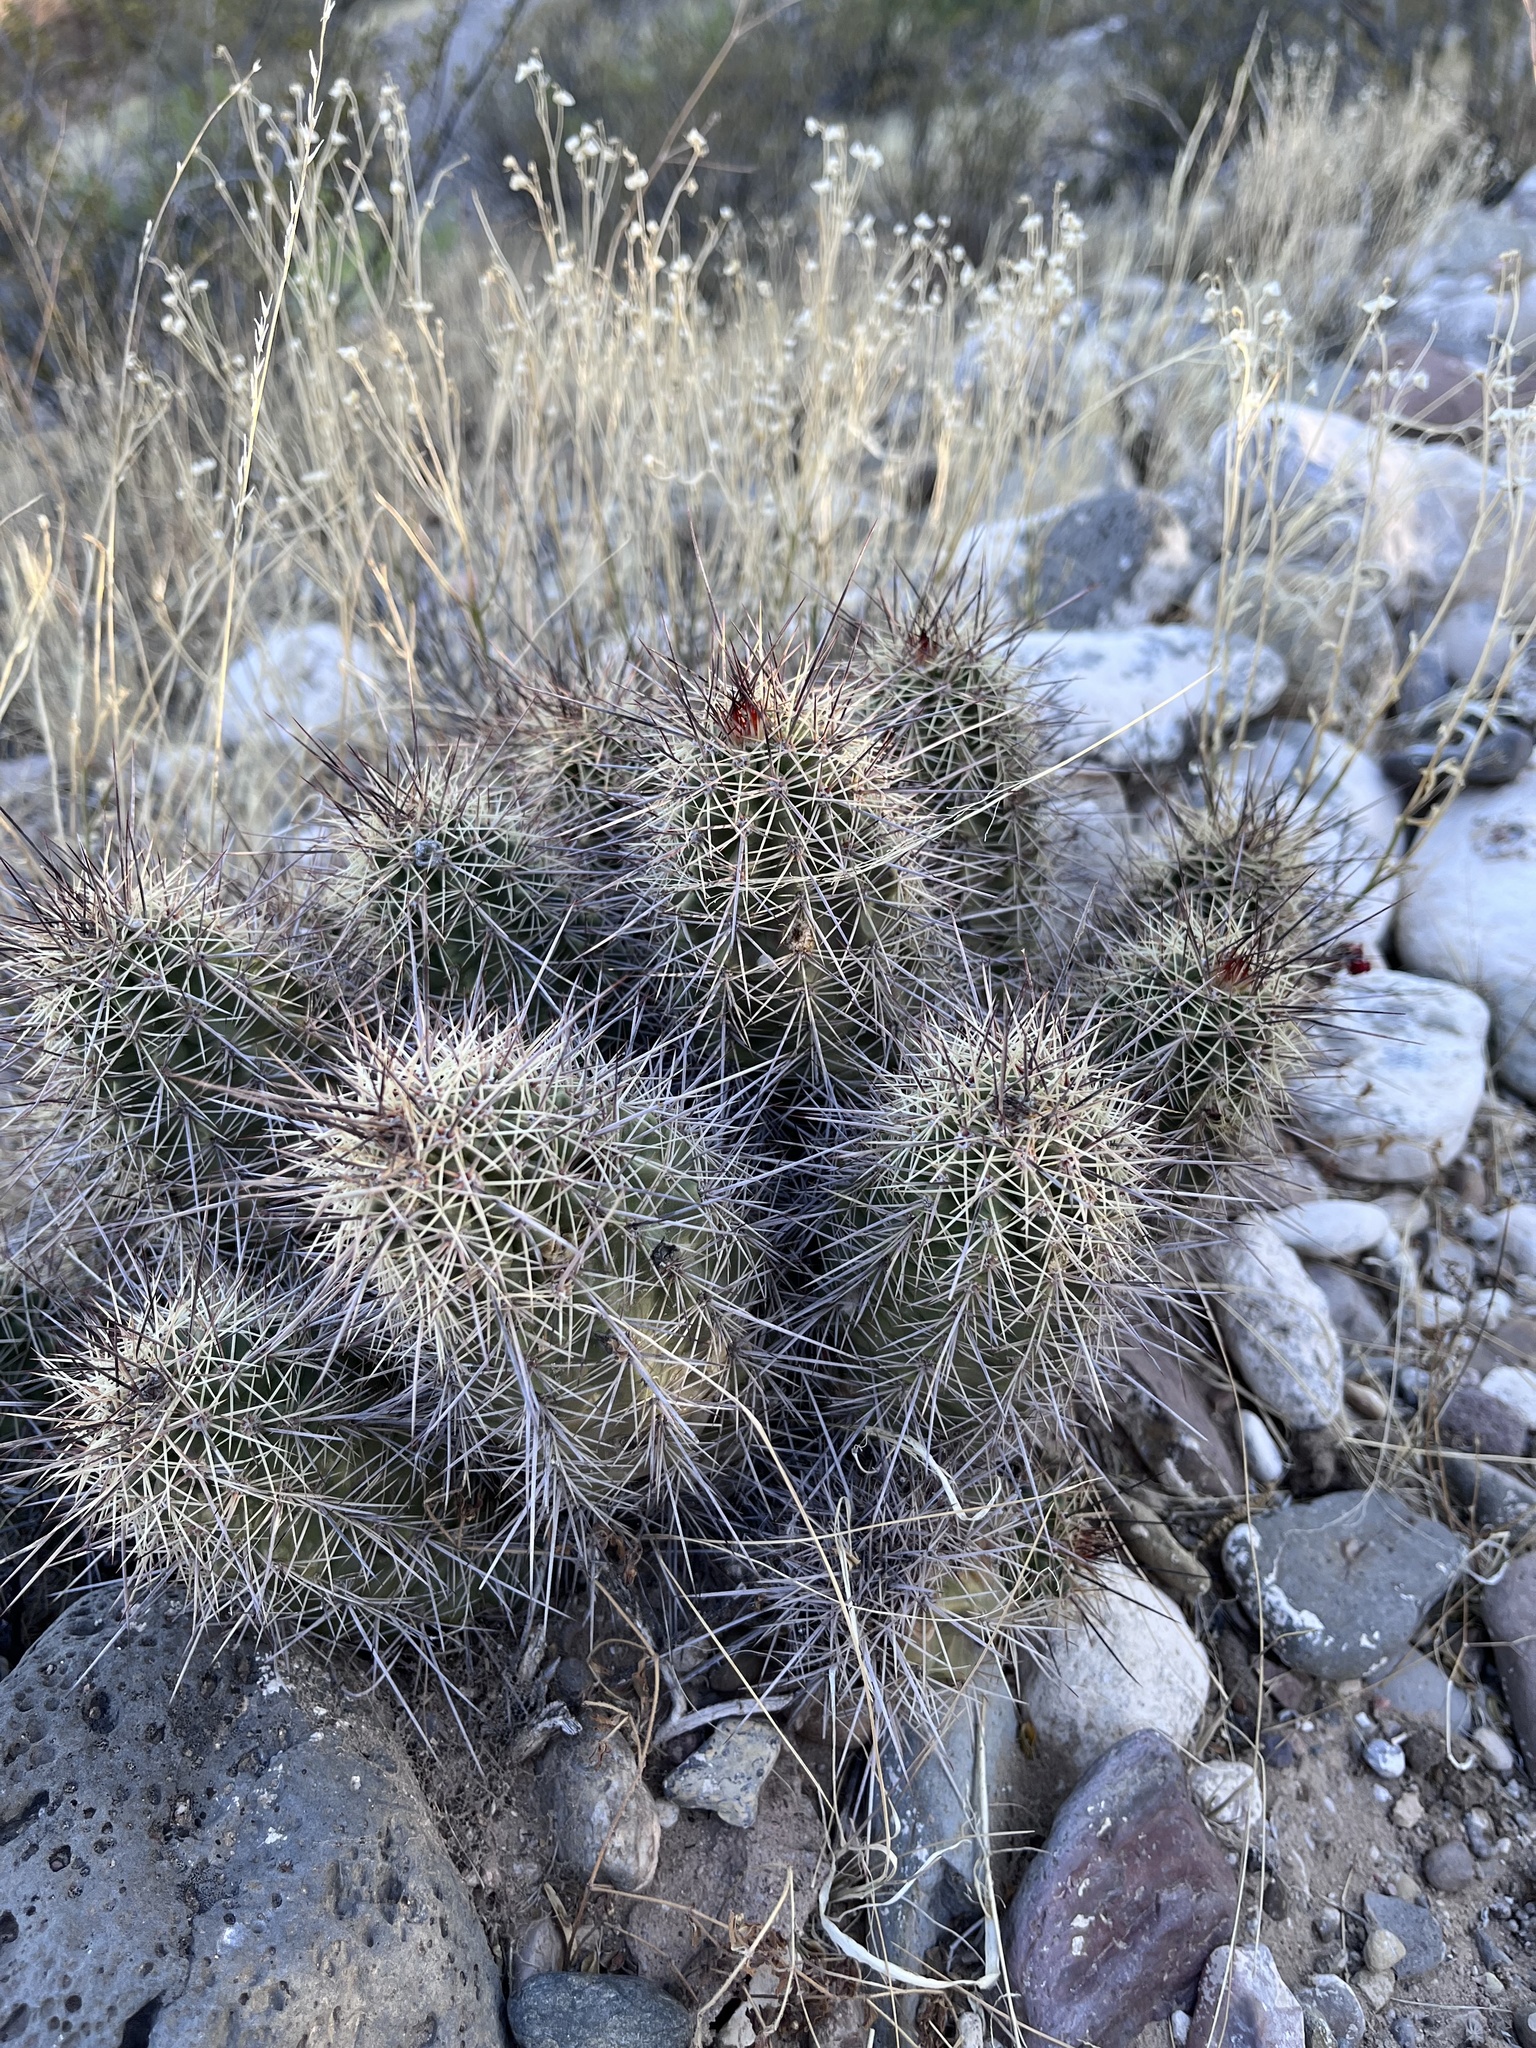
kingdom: Plantae
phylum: Tracheophyta
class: Magnoliopsida
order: Caryophyllales
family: Cactaceae
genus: Echinocereus
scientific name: Echinocereus coccineus
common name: Scarlet hedgehog cactus
